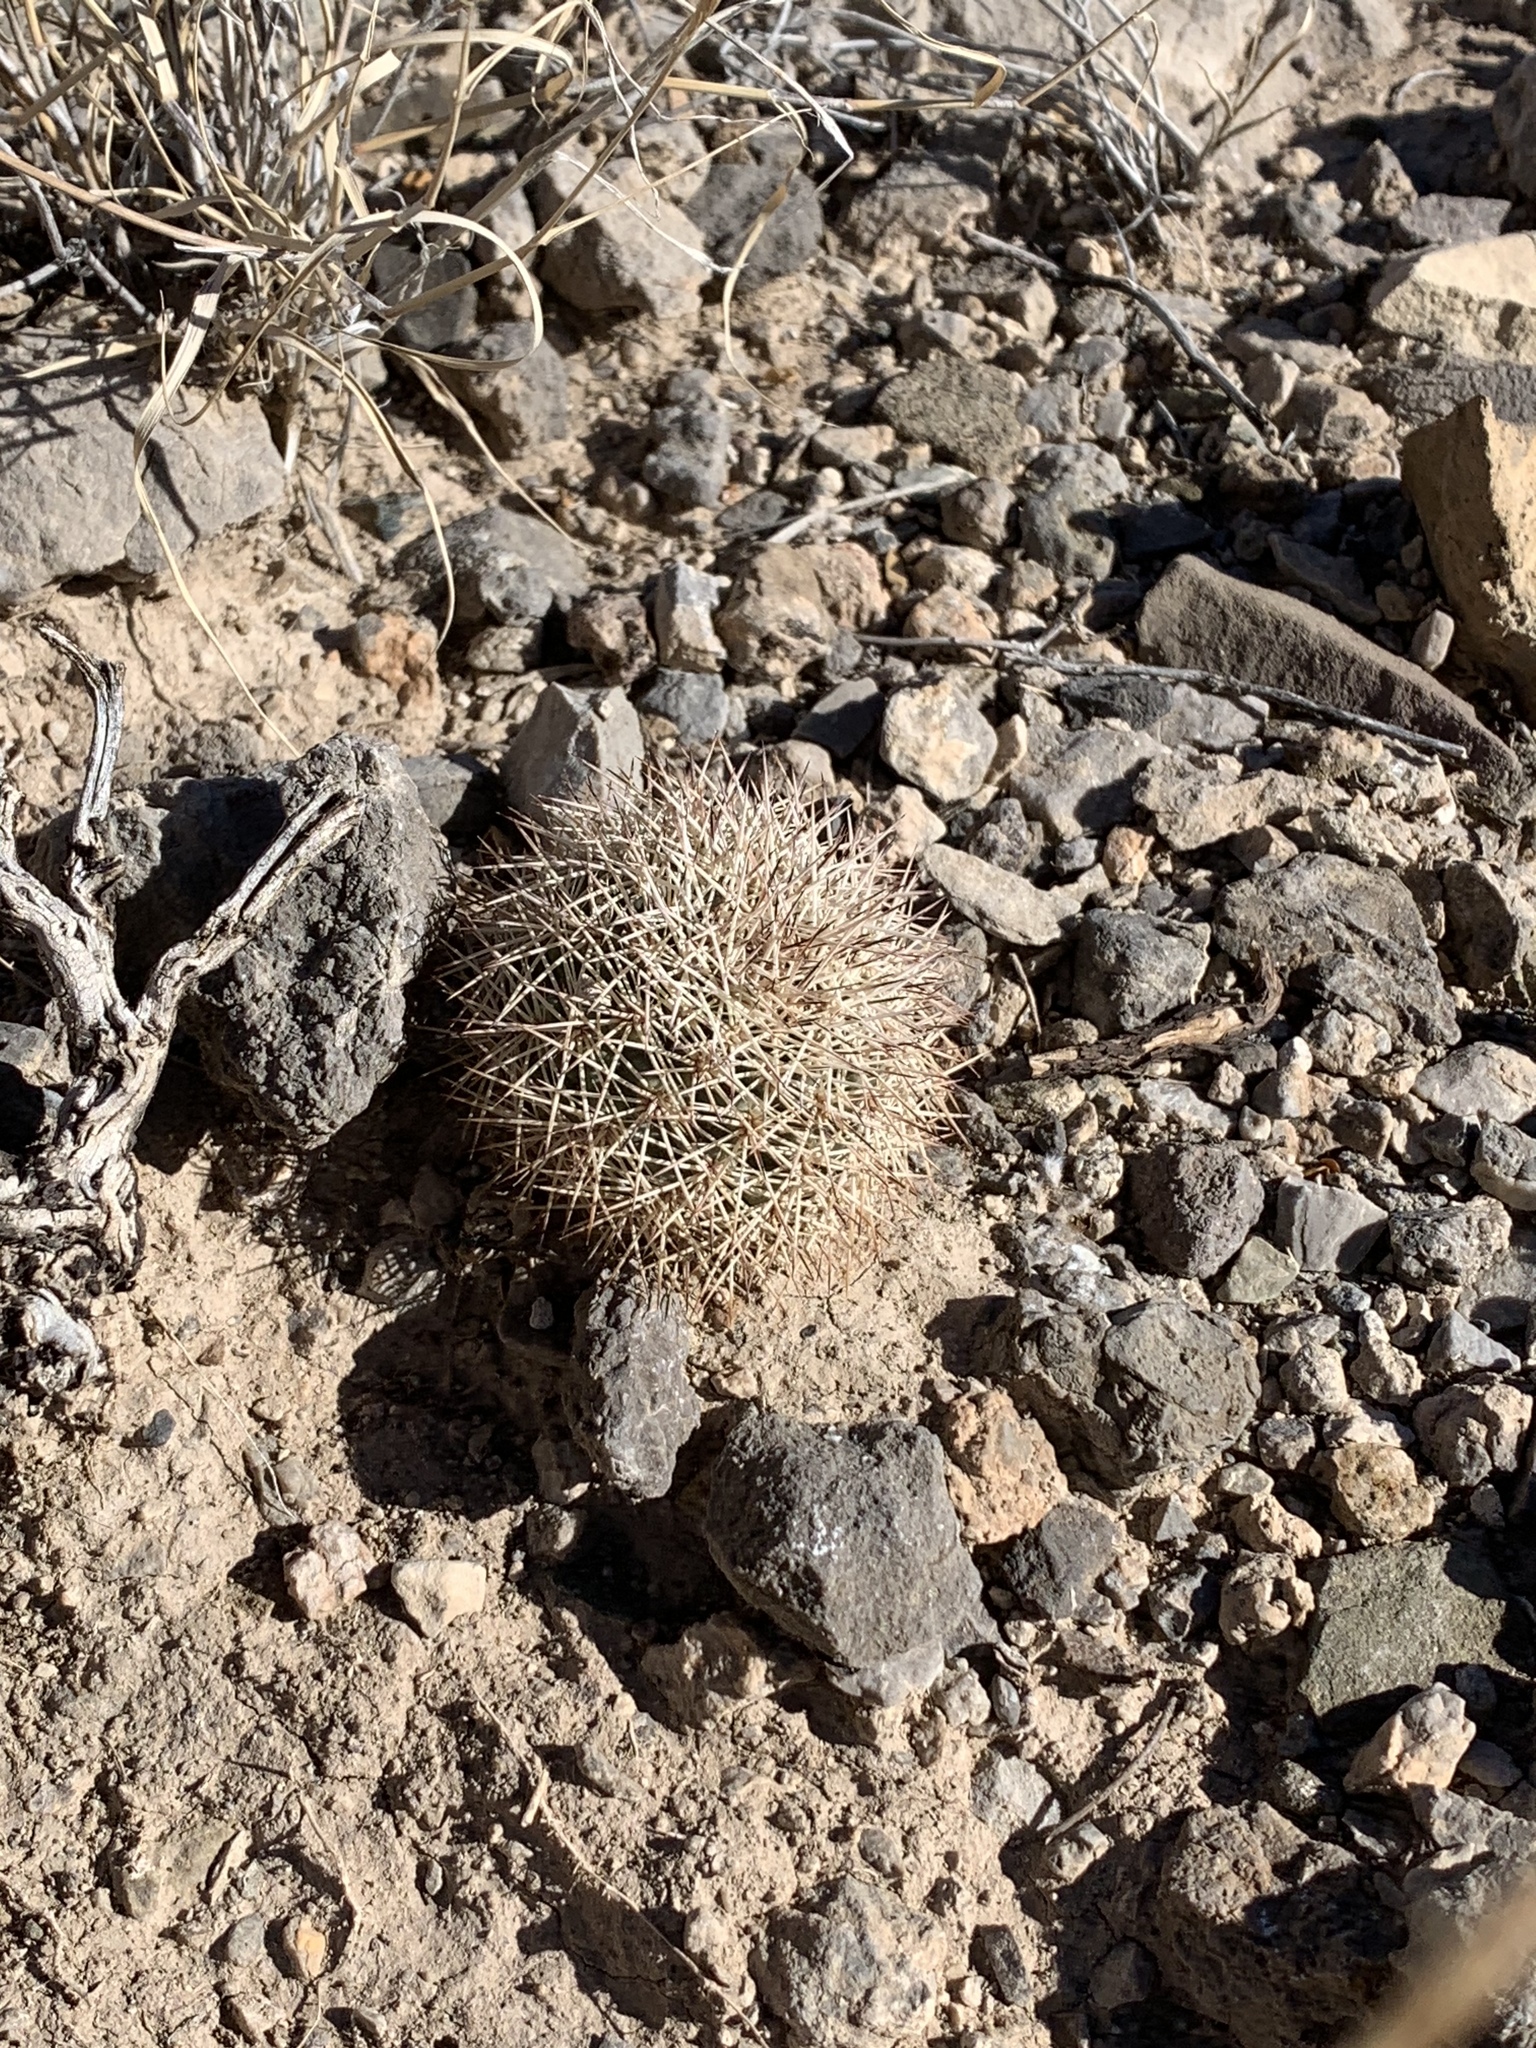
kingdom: Plantae
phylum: Tracheophyta
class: Magnoliopsida
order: Caryophyllales
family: Cactaceae
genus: Echinocereus
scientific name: Echinocereus dasyacanthus
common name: Spiny hedgehog cactus
